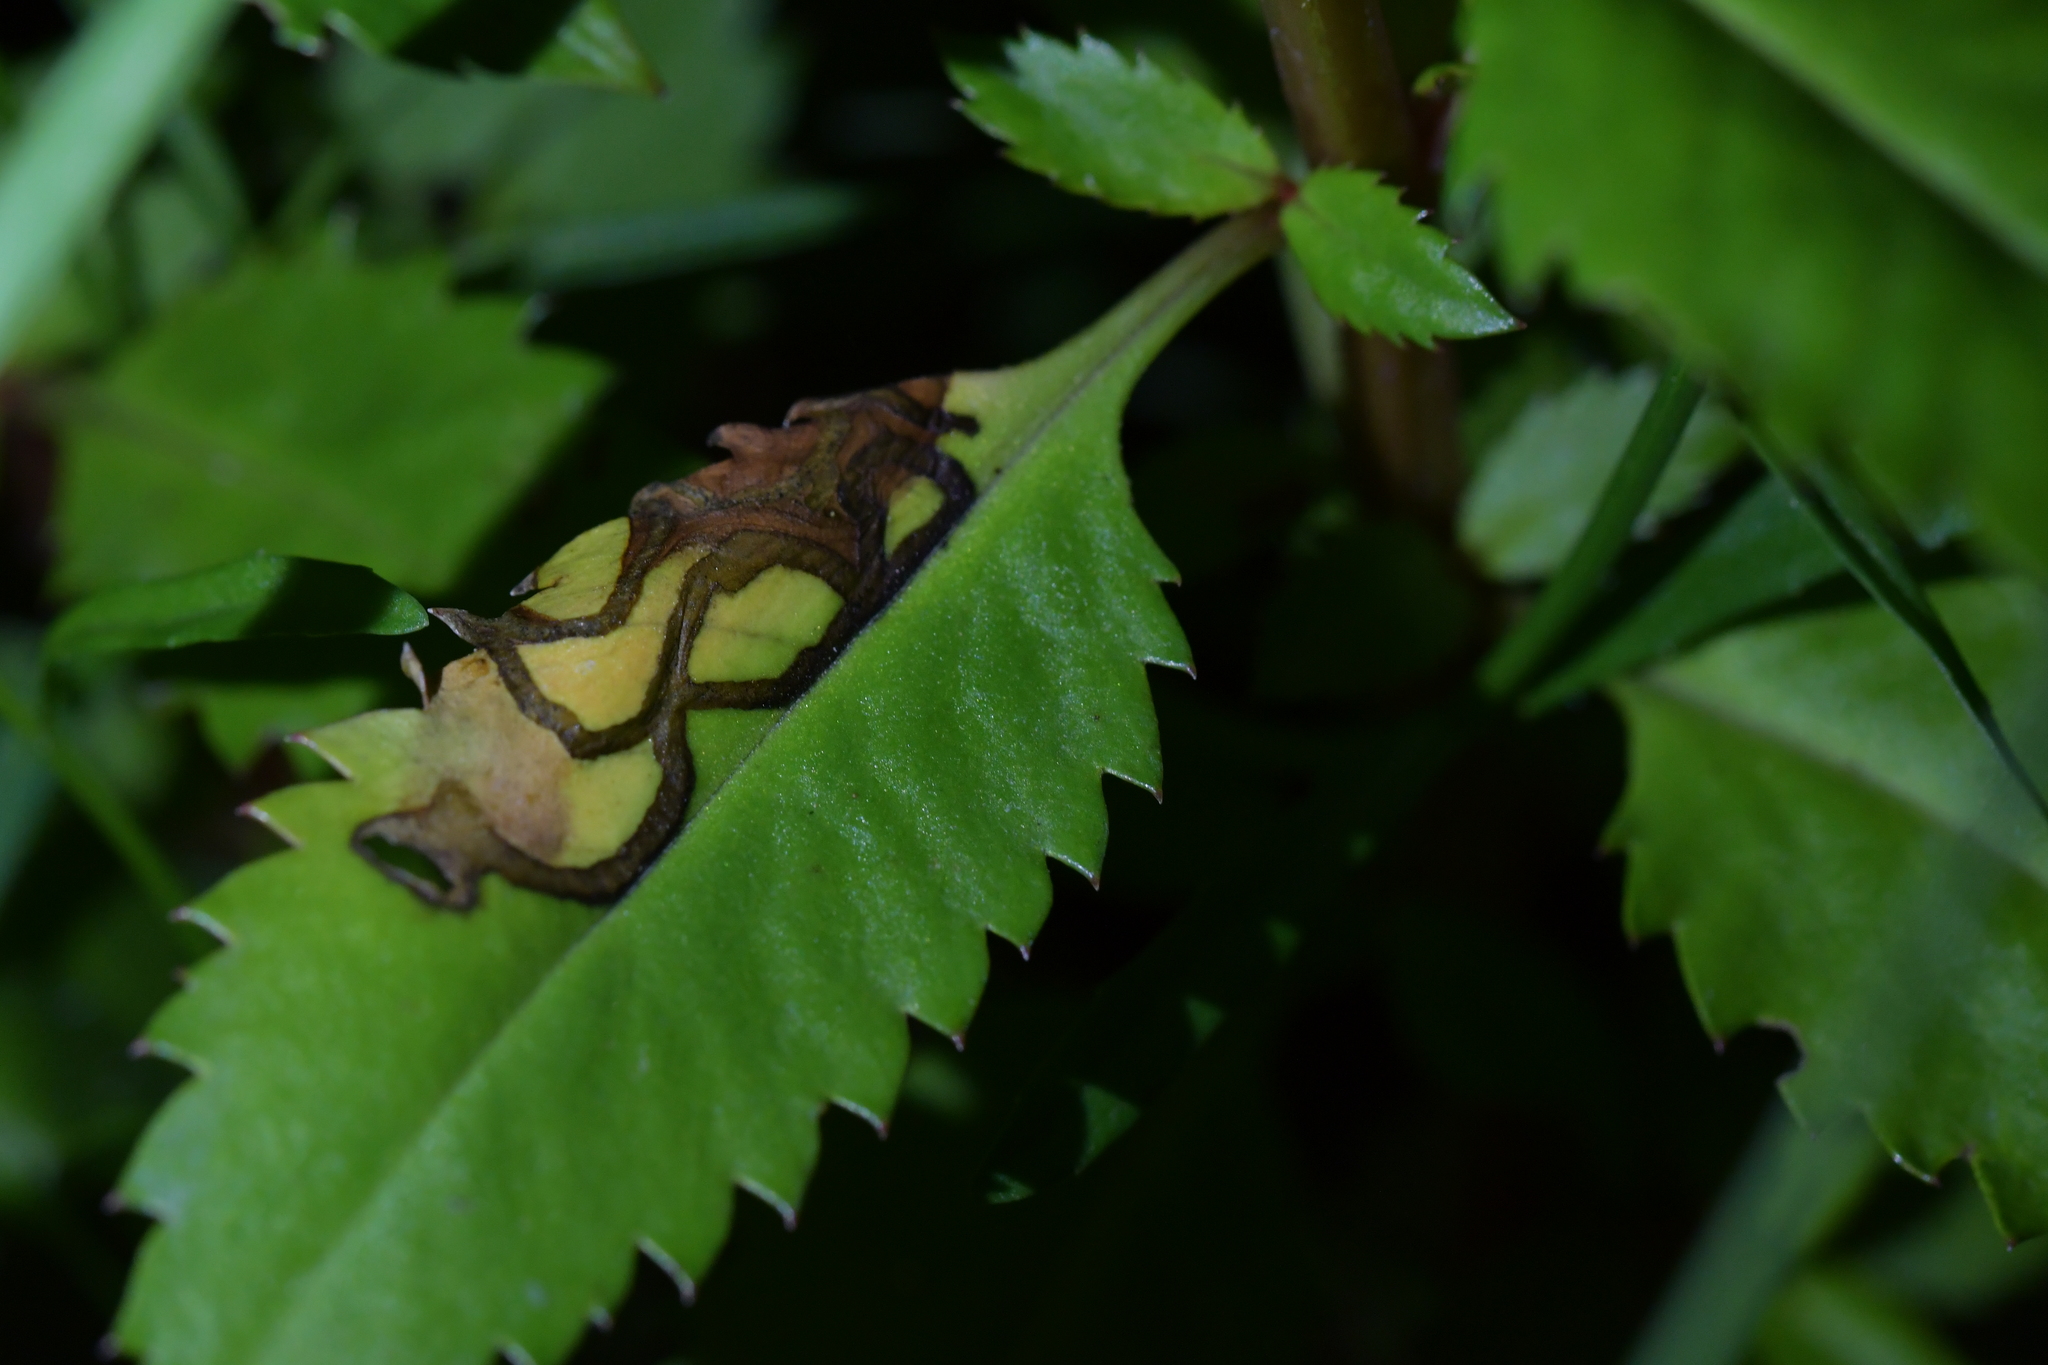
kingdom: Animalia
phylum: Arthropoda
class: Insecta
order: Lepidoptera
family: Momphidae
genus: Zapyrastra
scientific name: Zapyrastra
